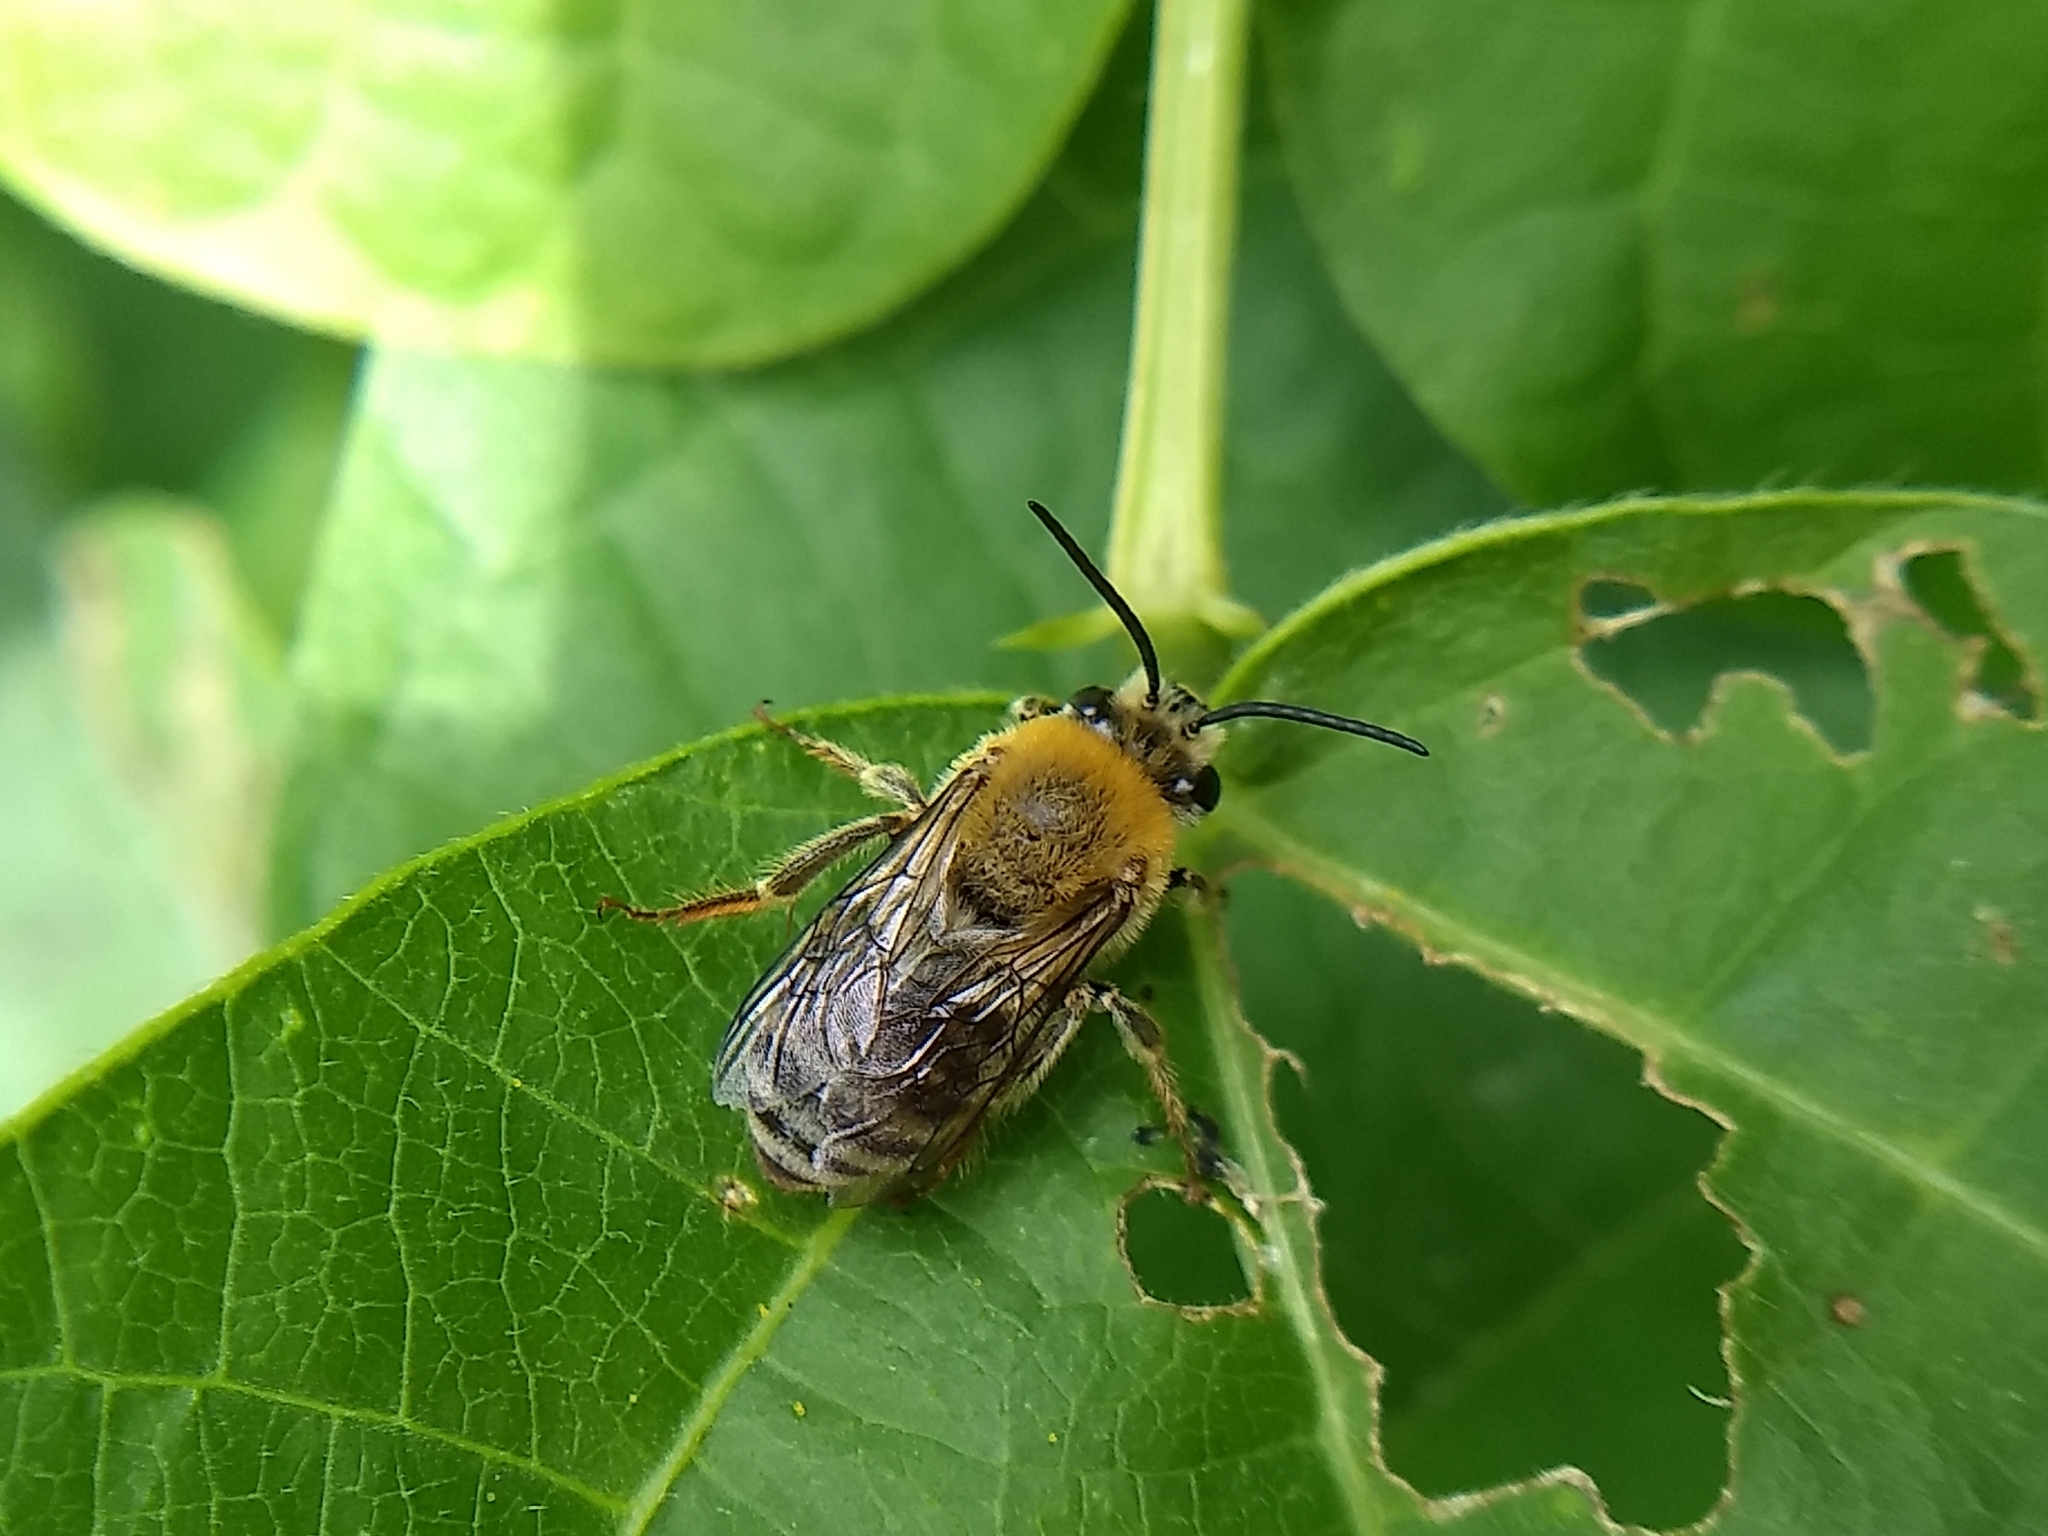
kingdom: Animalia
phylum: Arthropoda
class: Insecta
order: Hymenoptera
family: Apidae
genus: Peponapis
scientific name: Peponapis pruinosa
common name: Pruinose squash bee
